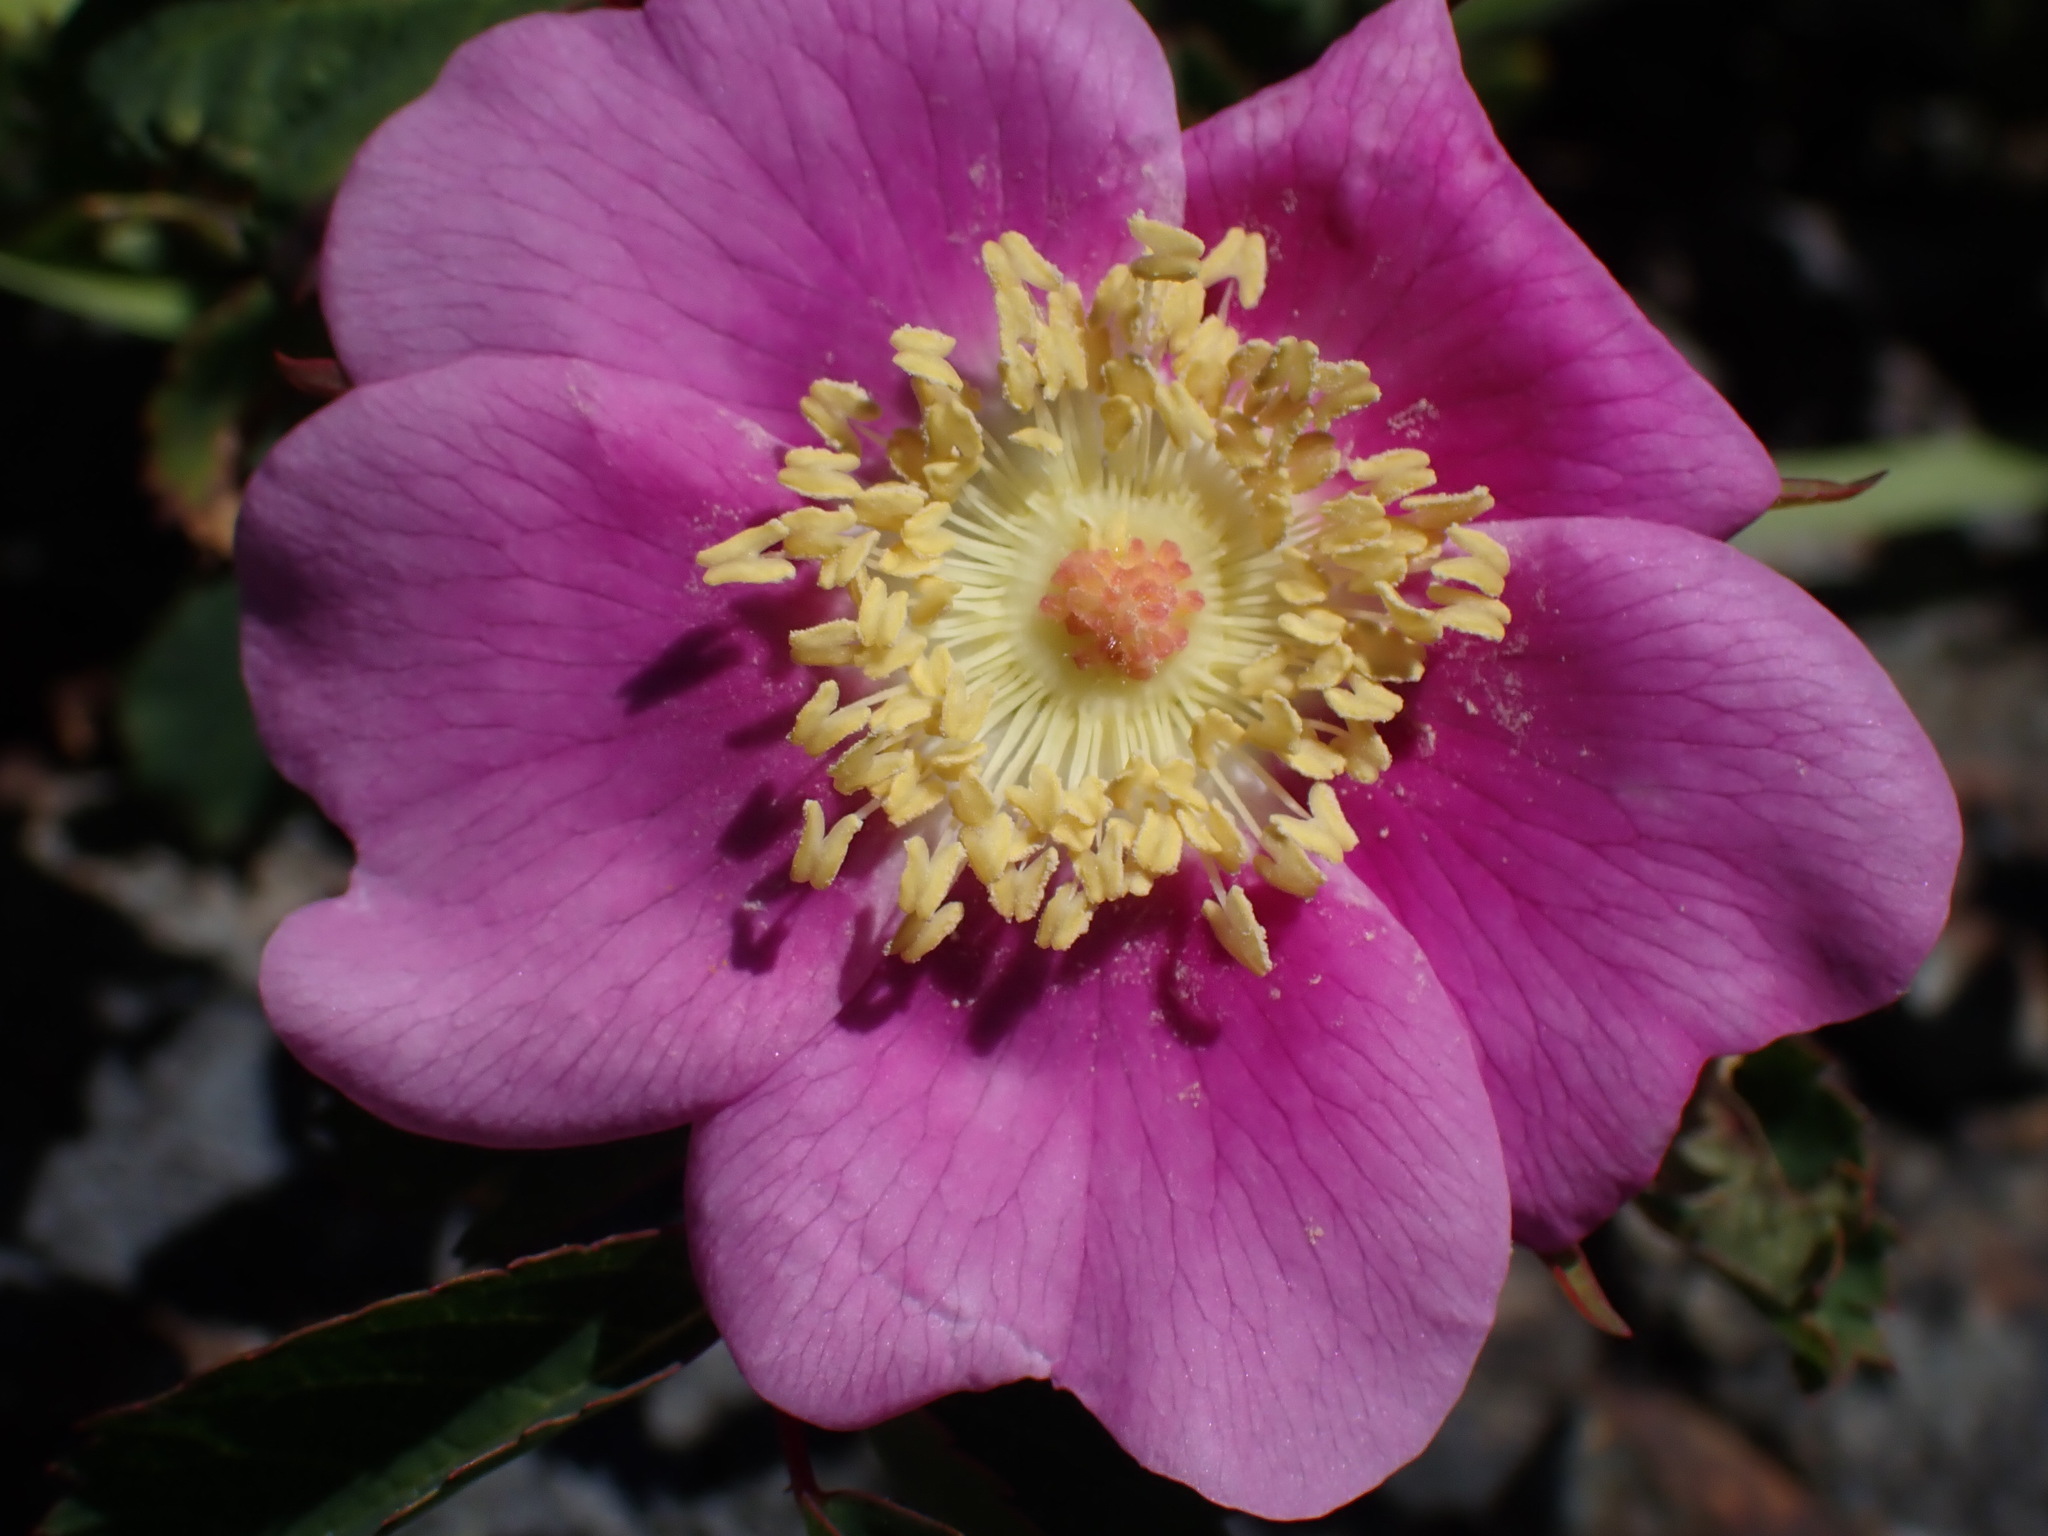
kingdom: Plantae
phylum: Tracheophyta
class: Magnoliopsida
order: Rosales
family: Rosaceae
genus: Rosa
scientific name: Rosa nutkana
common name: Nootka rose
